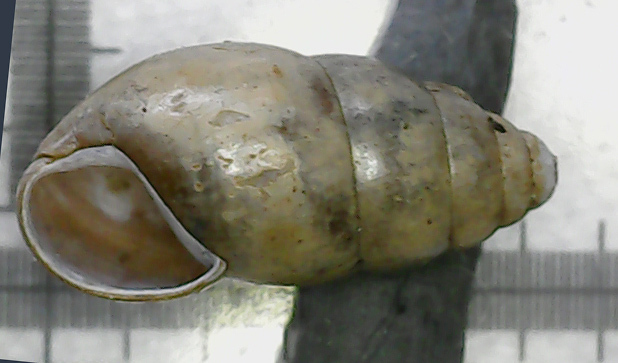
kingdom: Animalia
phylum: Mollusca
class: Gastropoda
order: Stylommatophora
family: Cochlicopidae
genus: Cochlicopa
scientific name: Cochlicopa nitens
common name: Robust pillar snail
